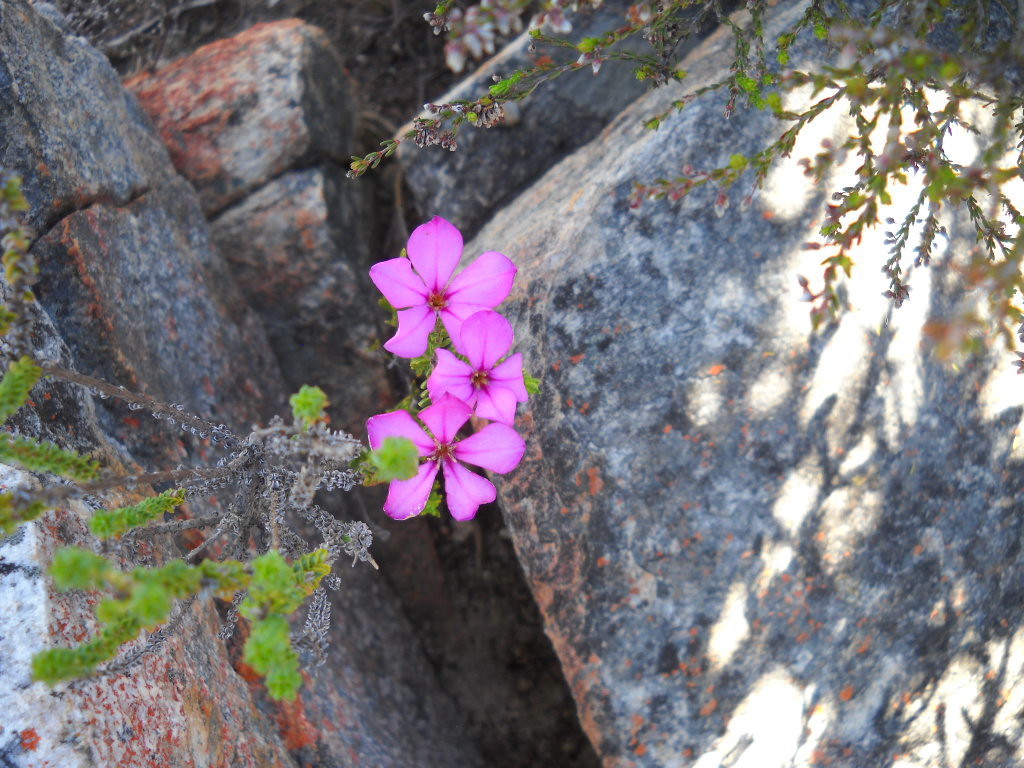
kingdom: Plantae
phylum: Tracheophyta
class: Magnoliopsida
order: Sapindales
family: Rutaceae
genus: Acmadenia
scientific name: Acmadenia sheilae
